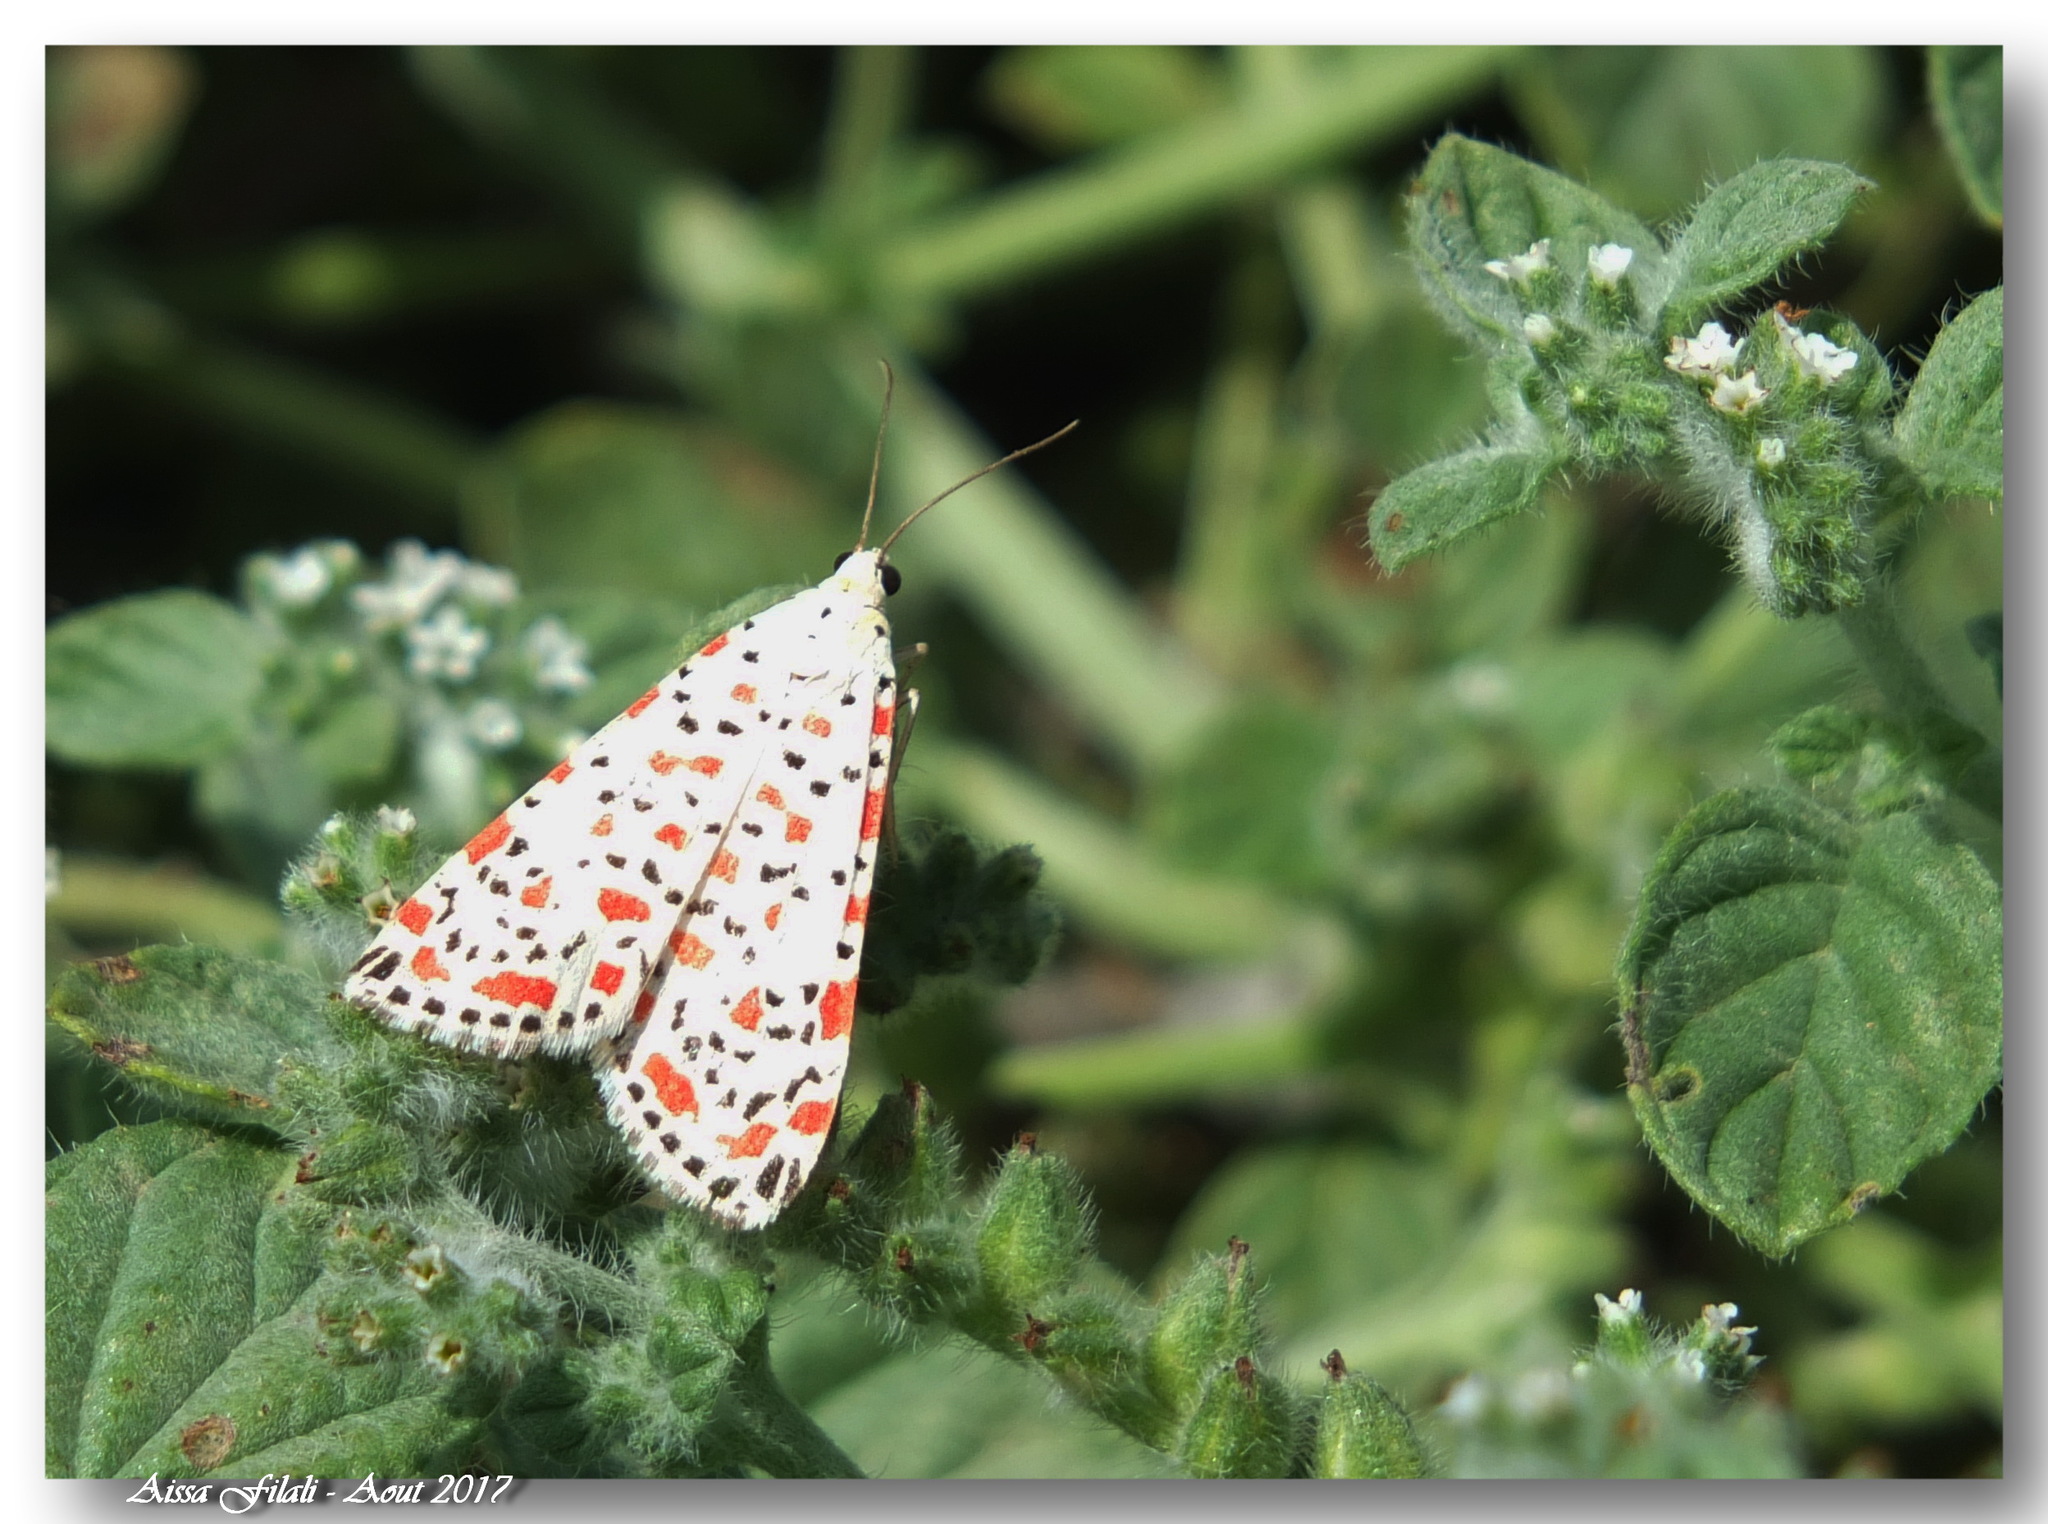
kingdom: Animalia
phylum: Arthropoda
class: Insecta
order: Lepidoptera
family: Erebidae
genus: Utetheisa
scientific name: Utetheisa pulchella
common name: Crimson speckled
